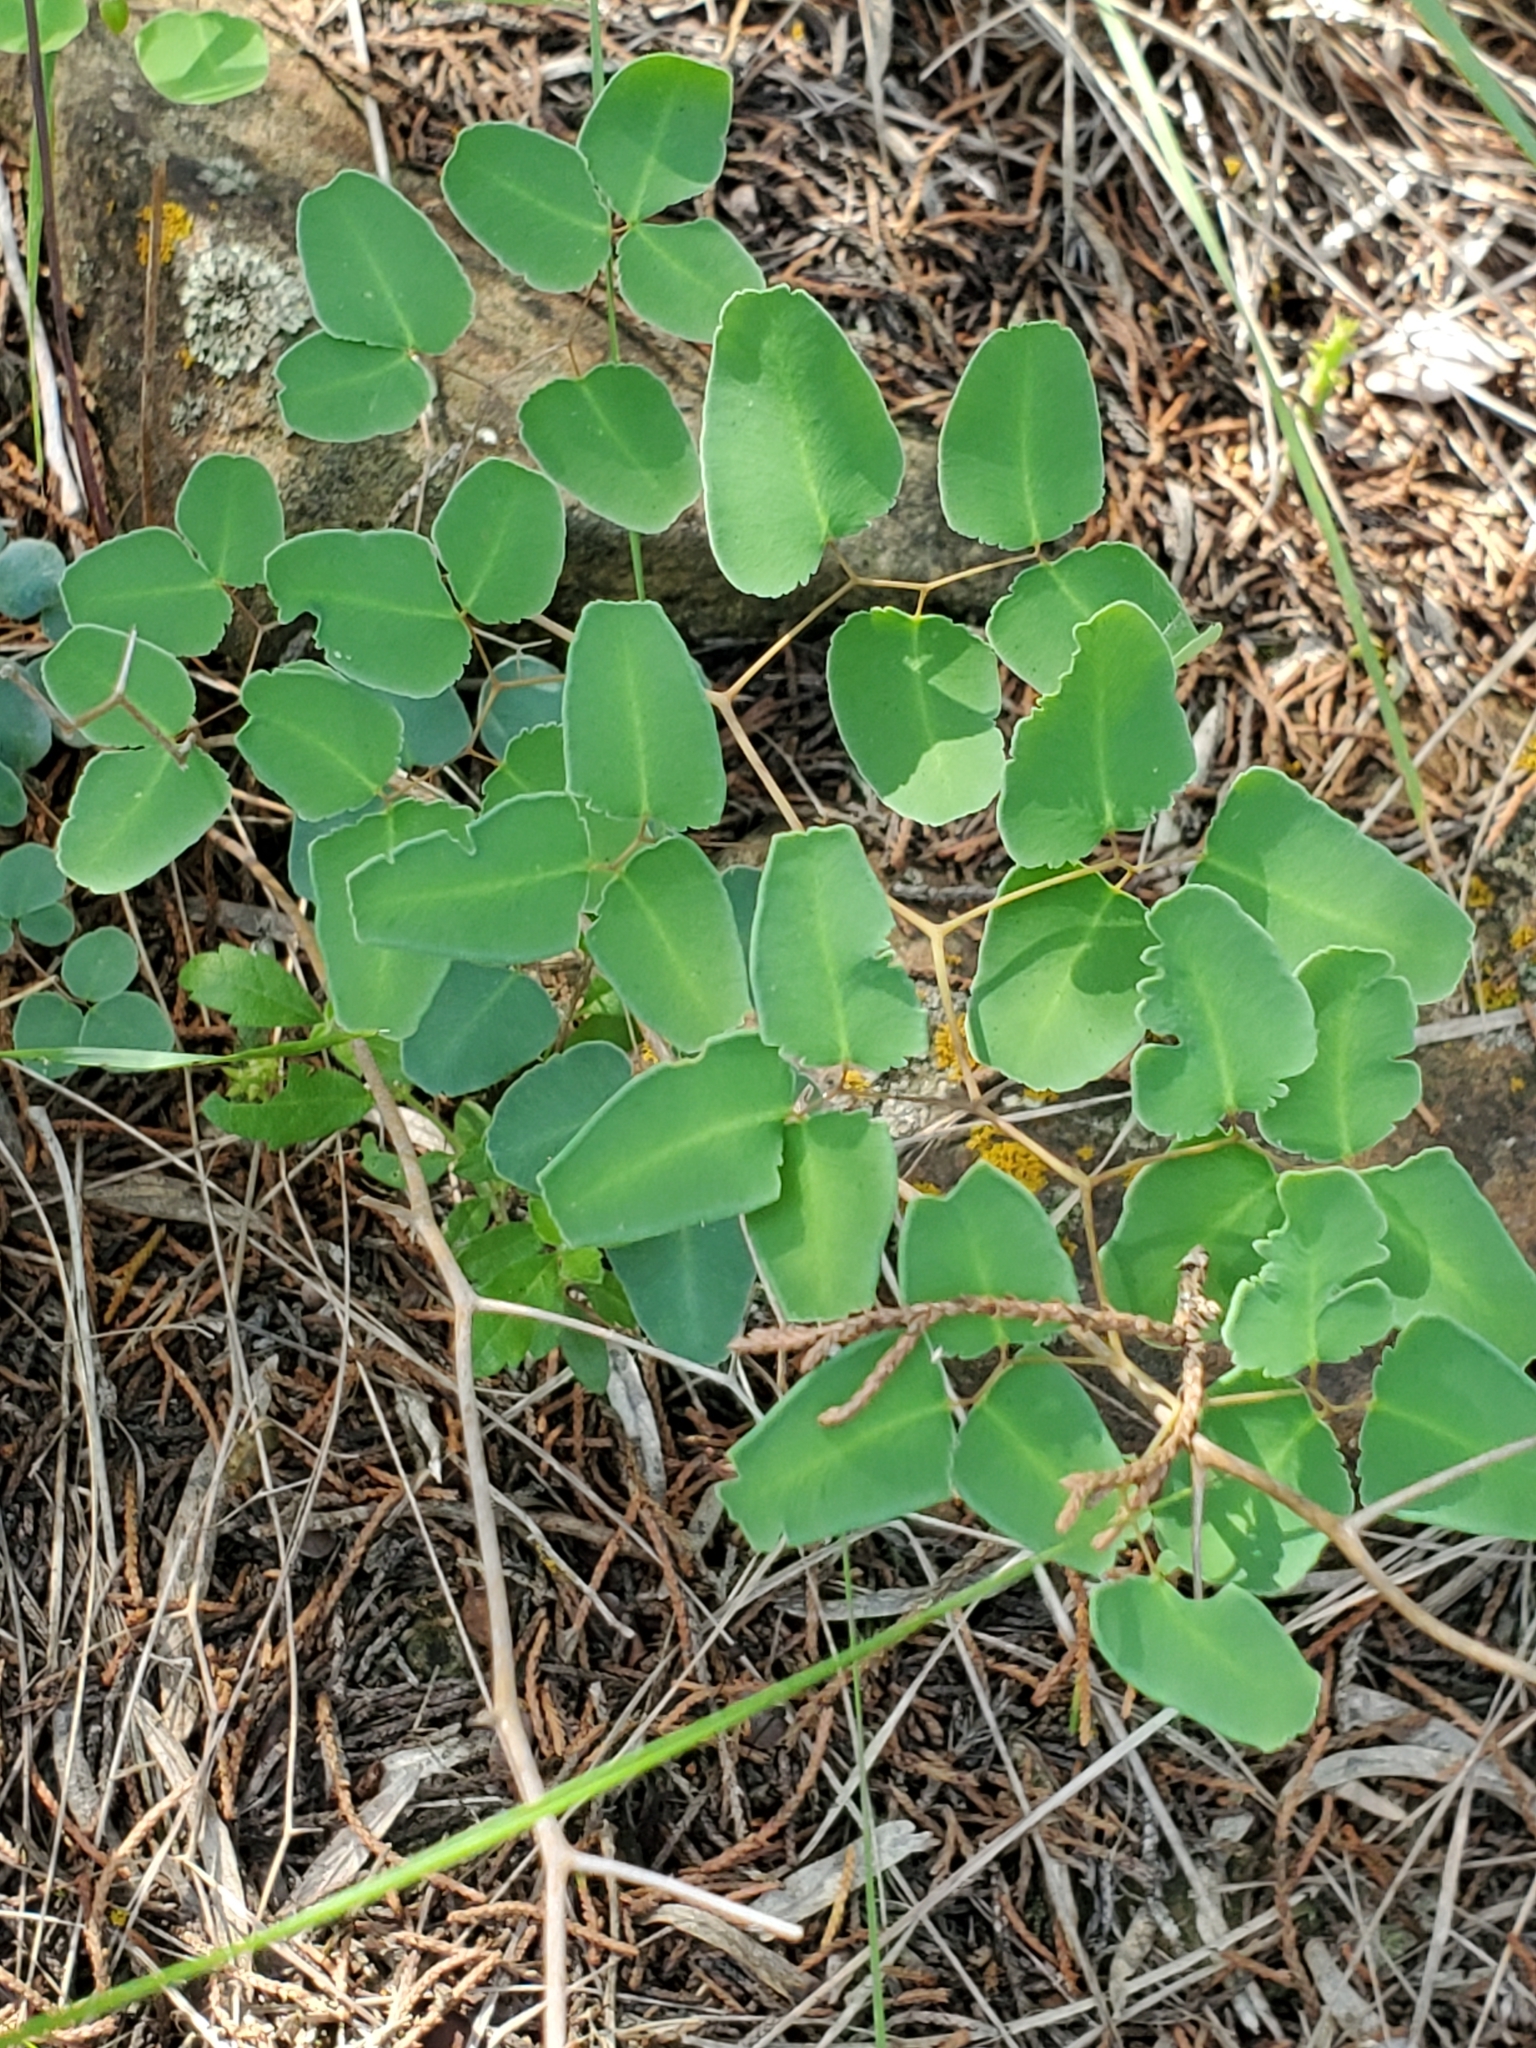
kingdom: Plantae
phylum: Tracheophyta
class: Polypodiopsida
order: Polypodiales
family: Pteridaceae
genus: Pellaea
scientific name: Pellaea ovata
